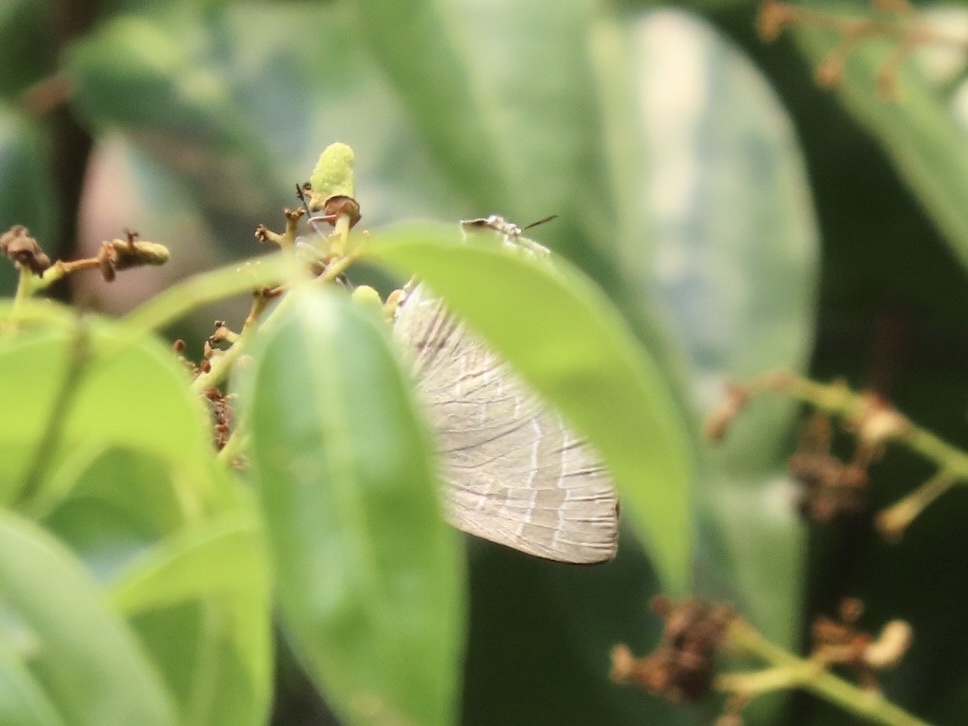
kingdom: Animalia
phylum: Arthropoda
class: Insecta
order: Lepidoptera
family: Lycaenidae
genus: Deudorix
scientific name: Deudorix epijarbas
